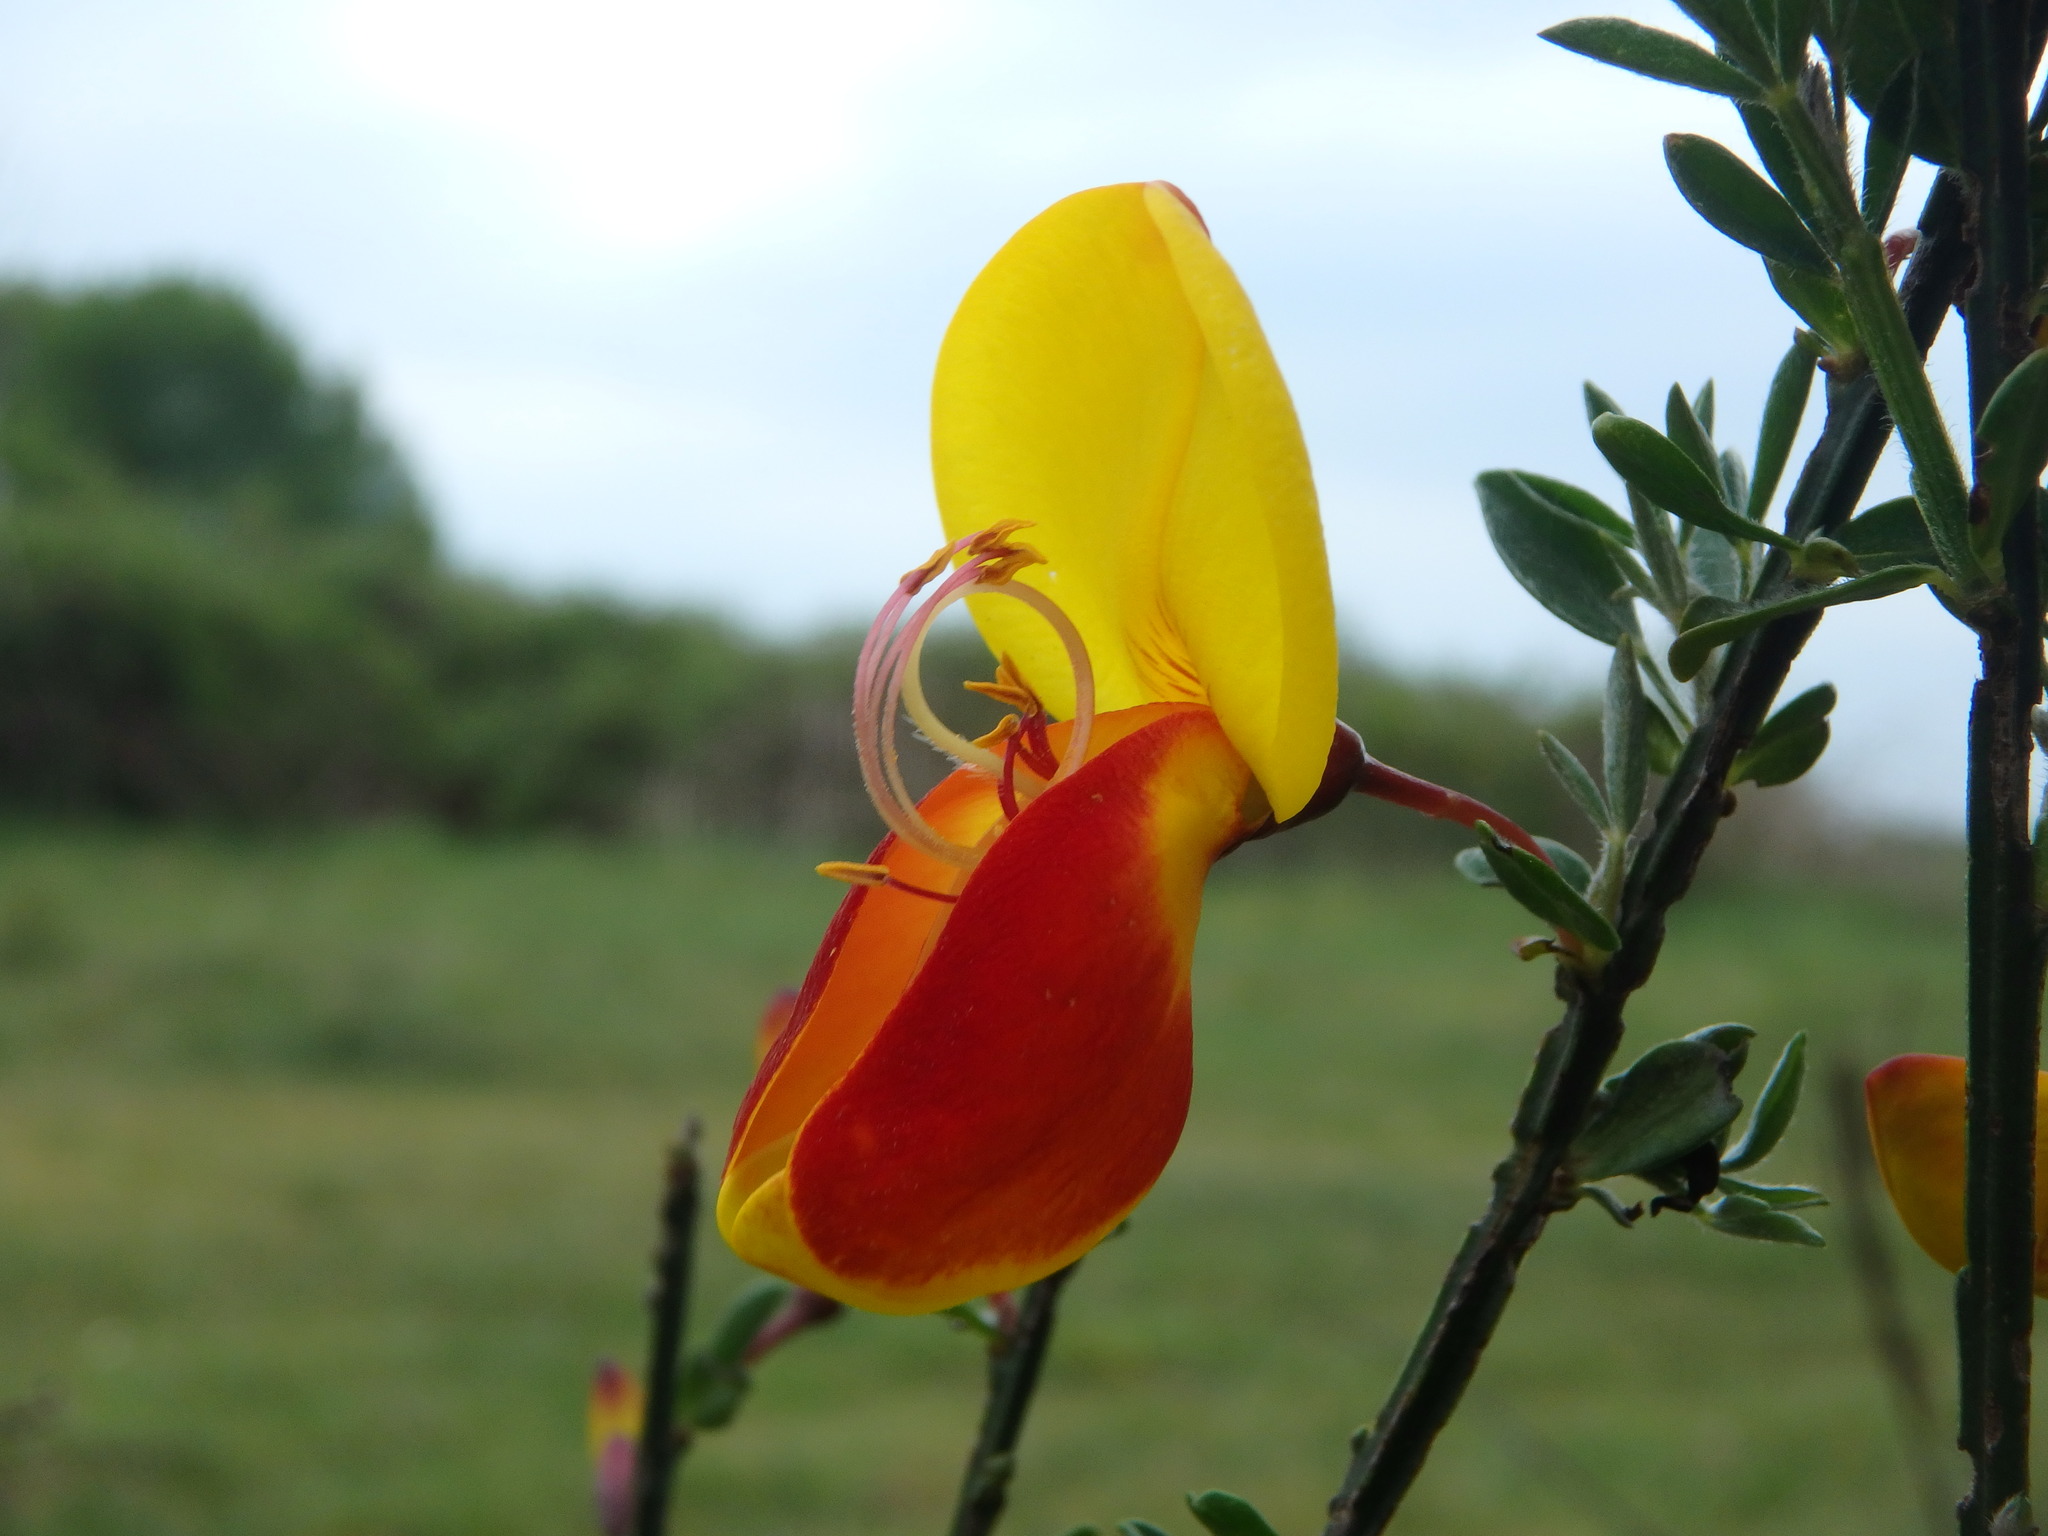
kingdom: Plantae
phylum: Tracheophyta
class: Magnoliopsida
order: Fabales
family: Fabaceae
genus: Cytisus
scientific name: Cytisus scoparius
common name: Scotch broom
